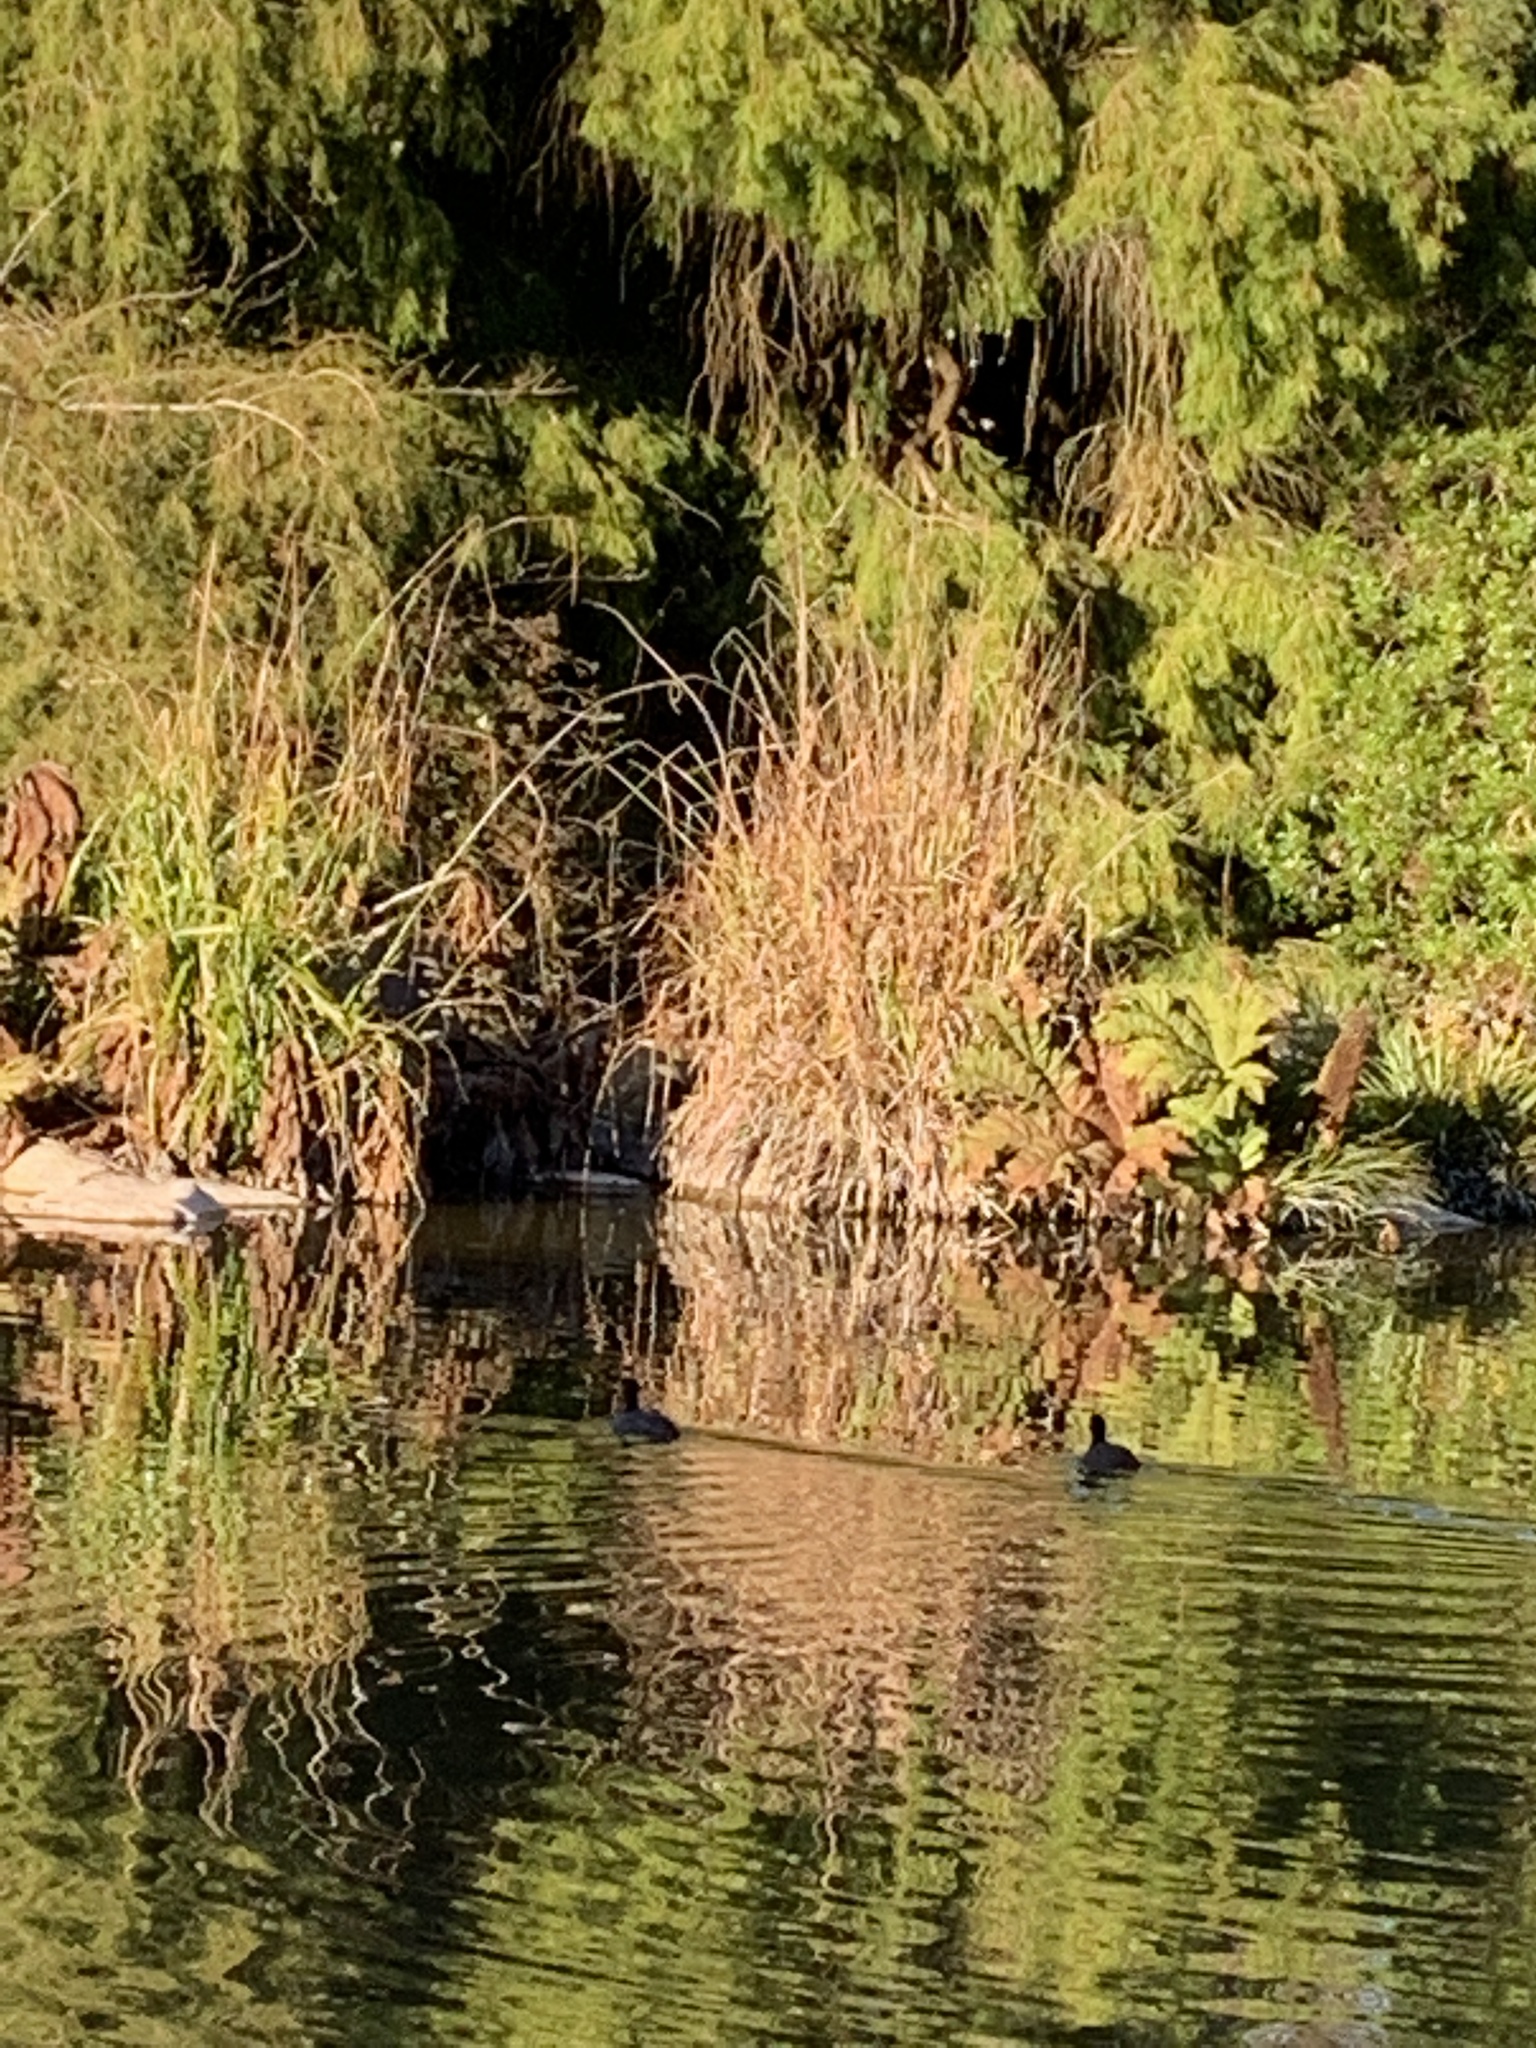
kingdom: Animalia
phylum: Chordata
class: Aves
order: Gruiformes
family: Rallidae
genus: Fulica
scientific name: Fulica americana
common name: American coot
